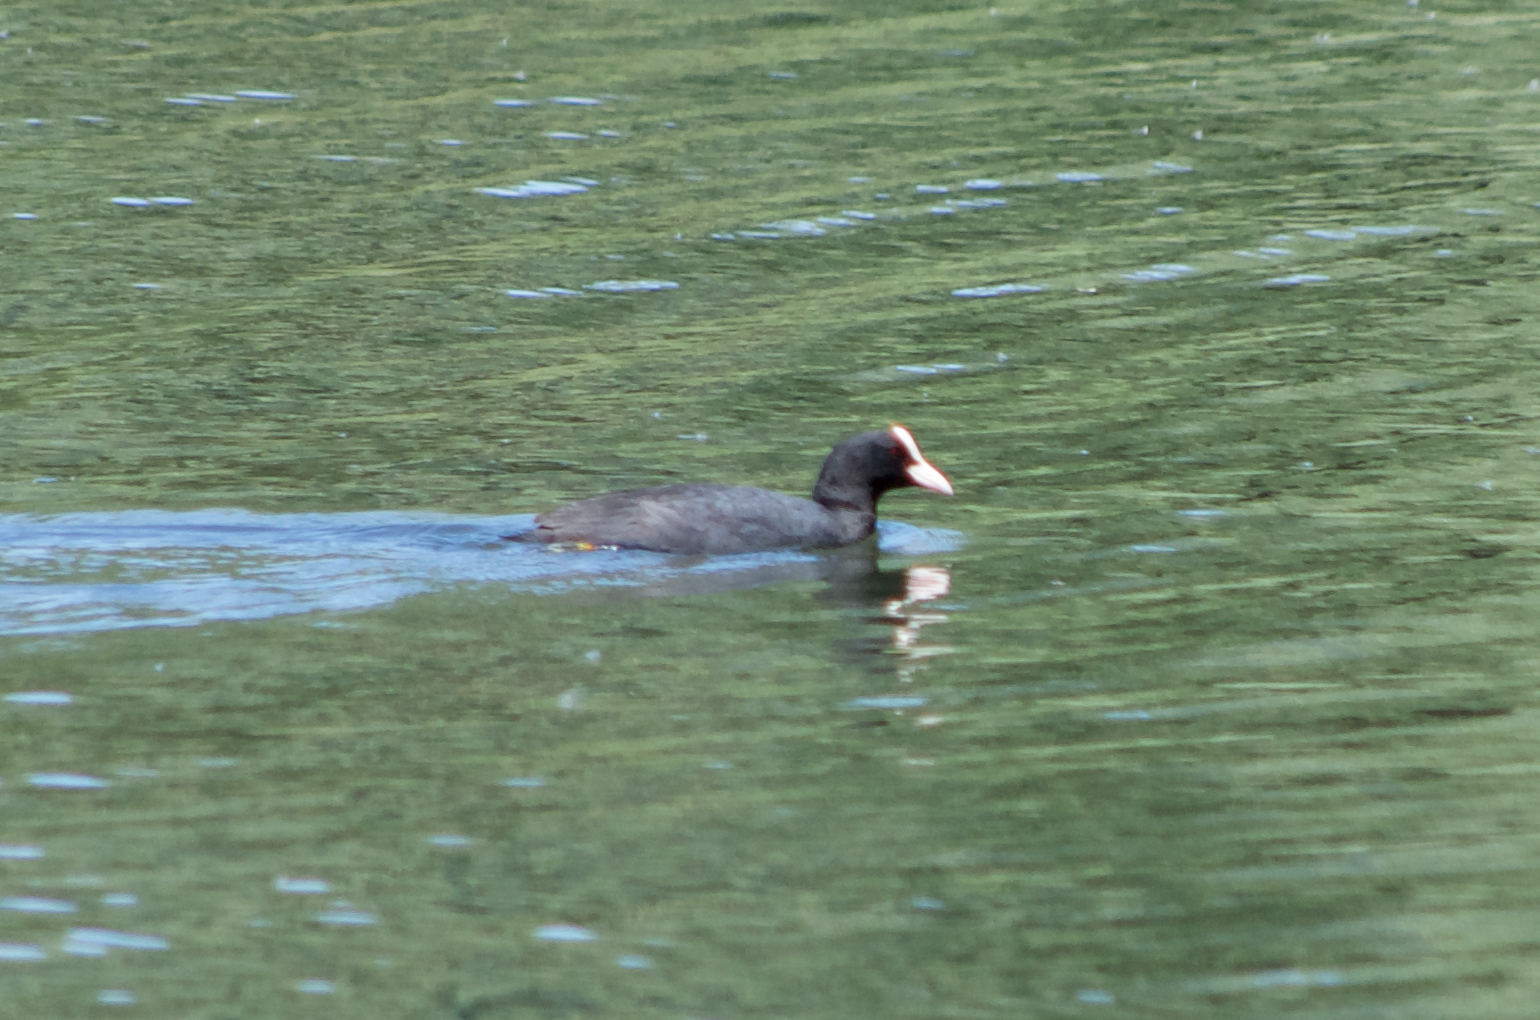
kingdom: Animalia
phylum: Chordata
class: Aves
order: Gruiformes
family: Rallidae
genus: Fulica
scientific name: Fulica atra
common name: Eurasian coot
